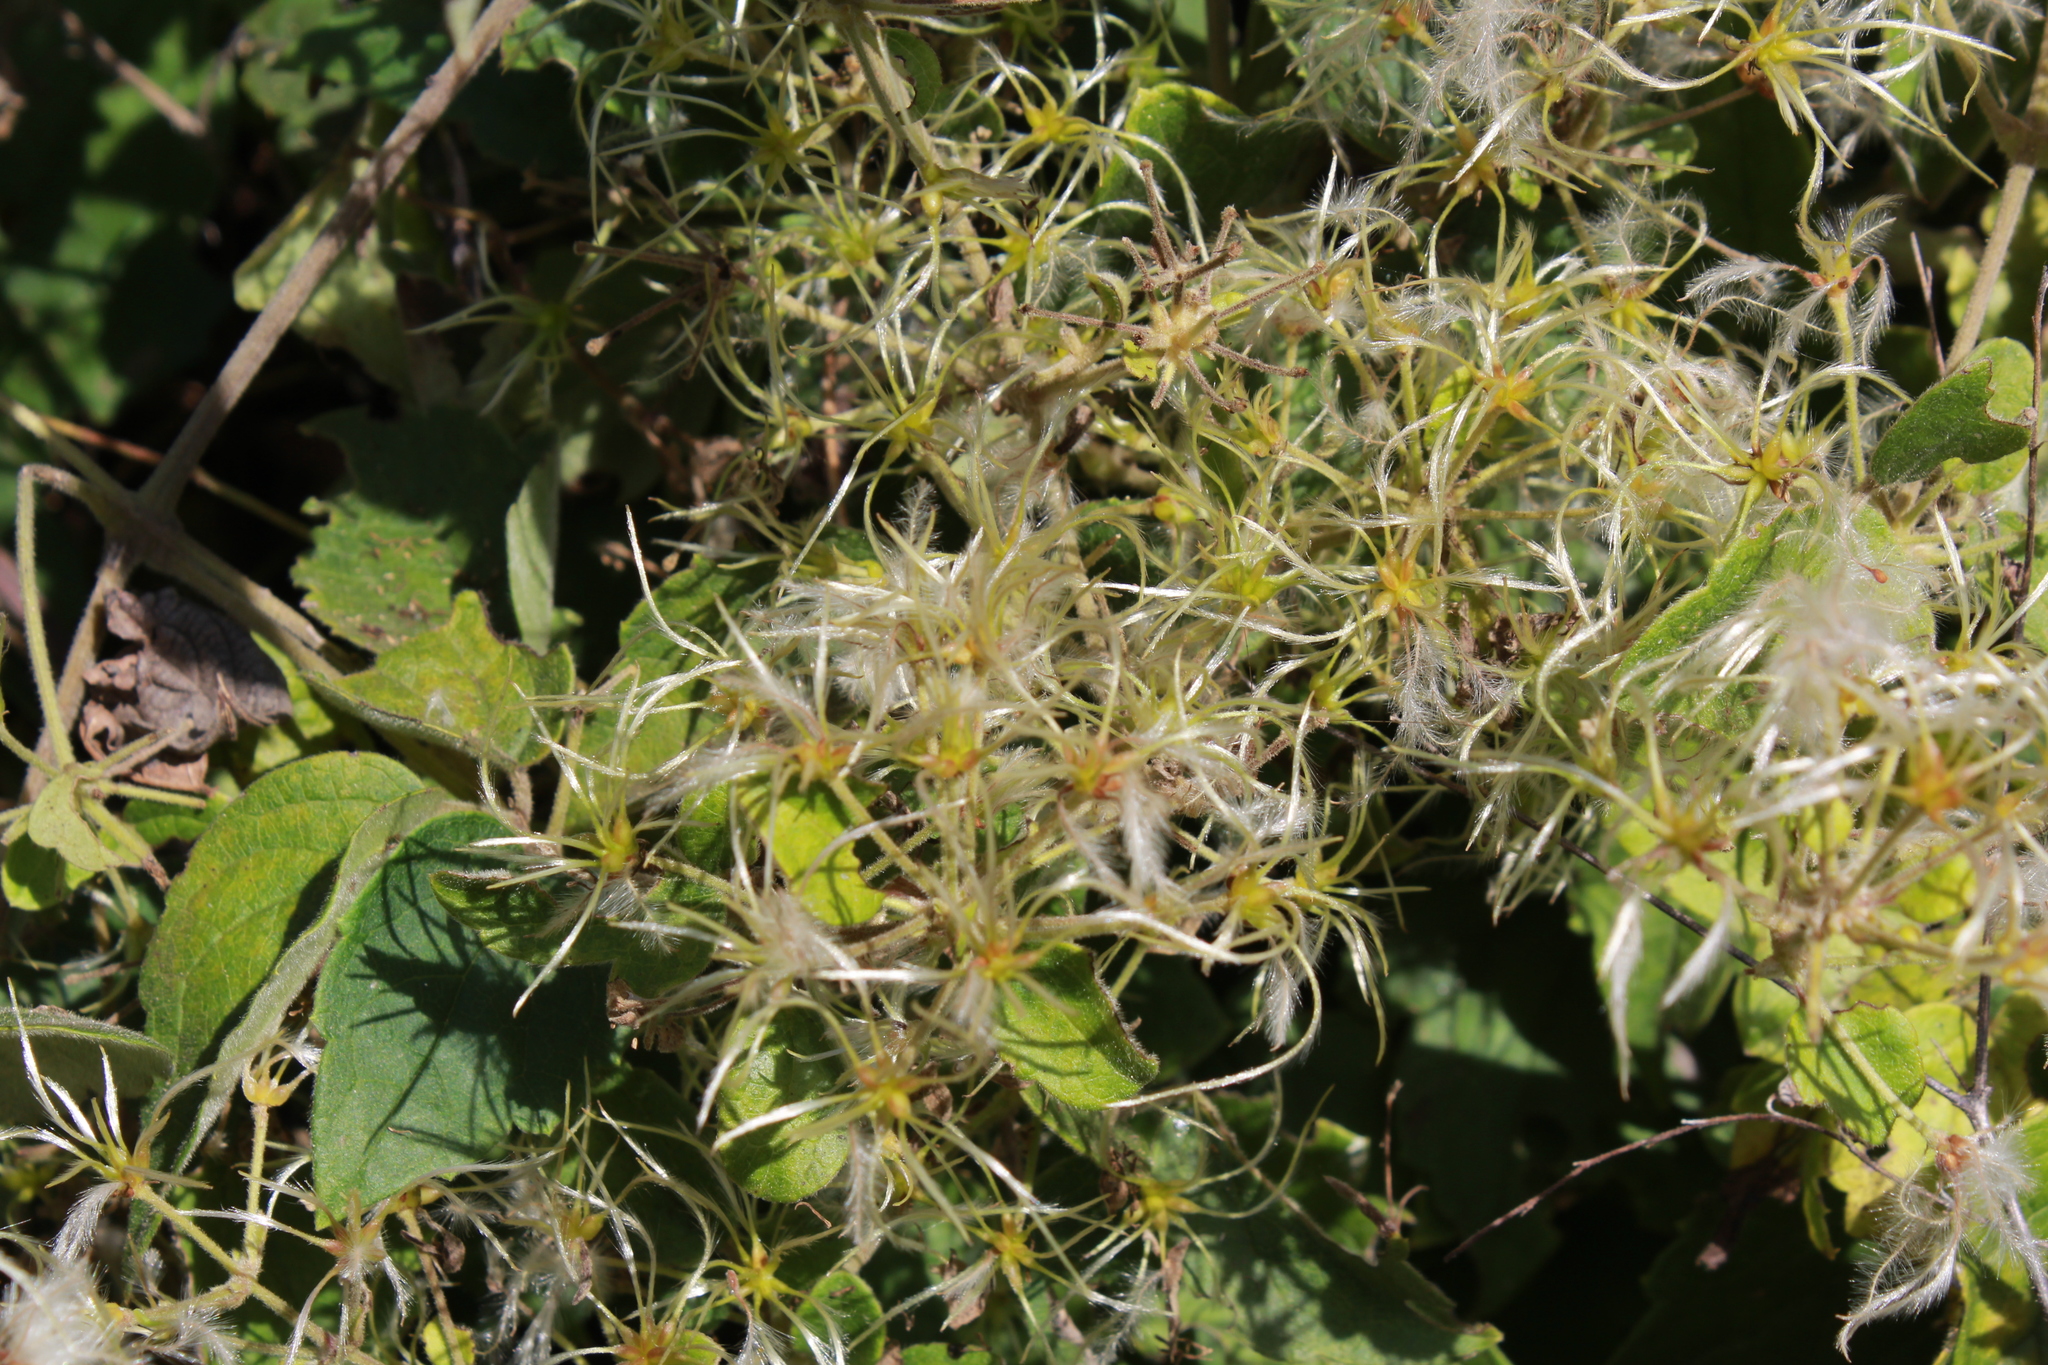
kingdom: Plantae
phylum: Tracheophyta
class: Magnoliopsida
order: Ranunculales
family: Ranunculaceae
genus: Clematis
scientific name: Clematis dioica
